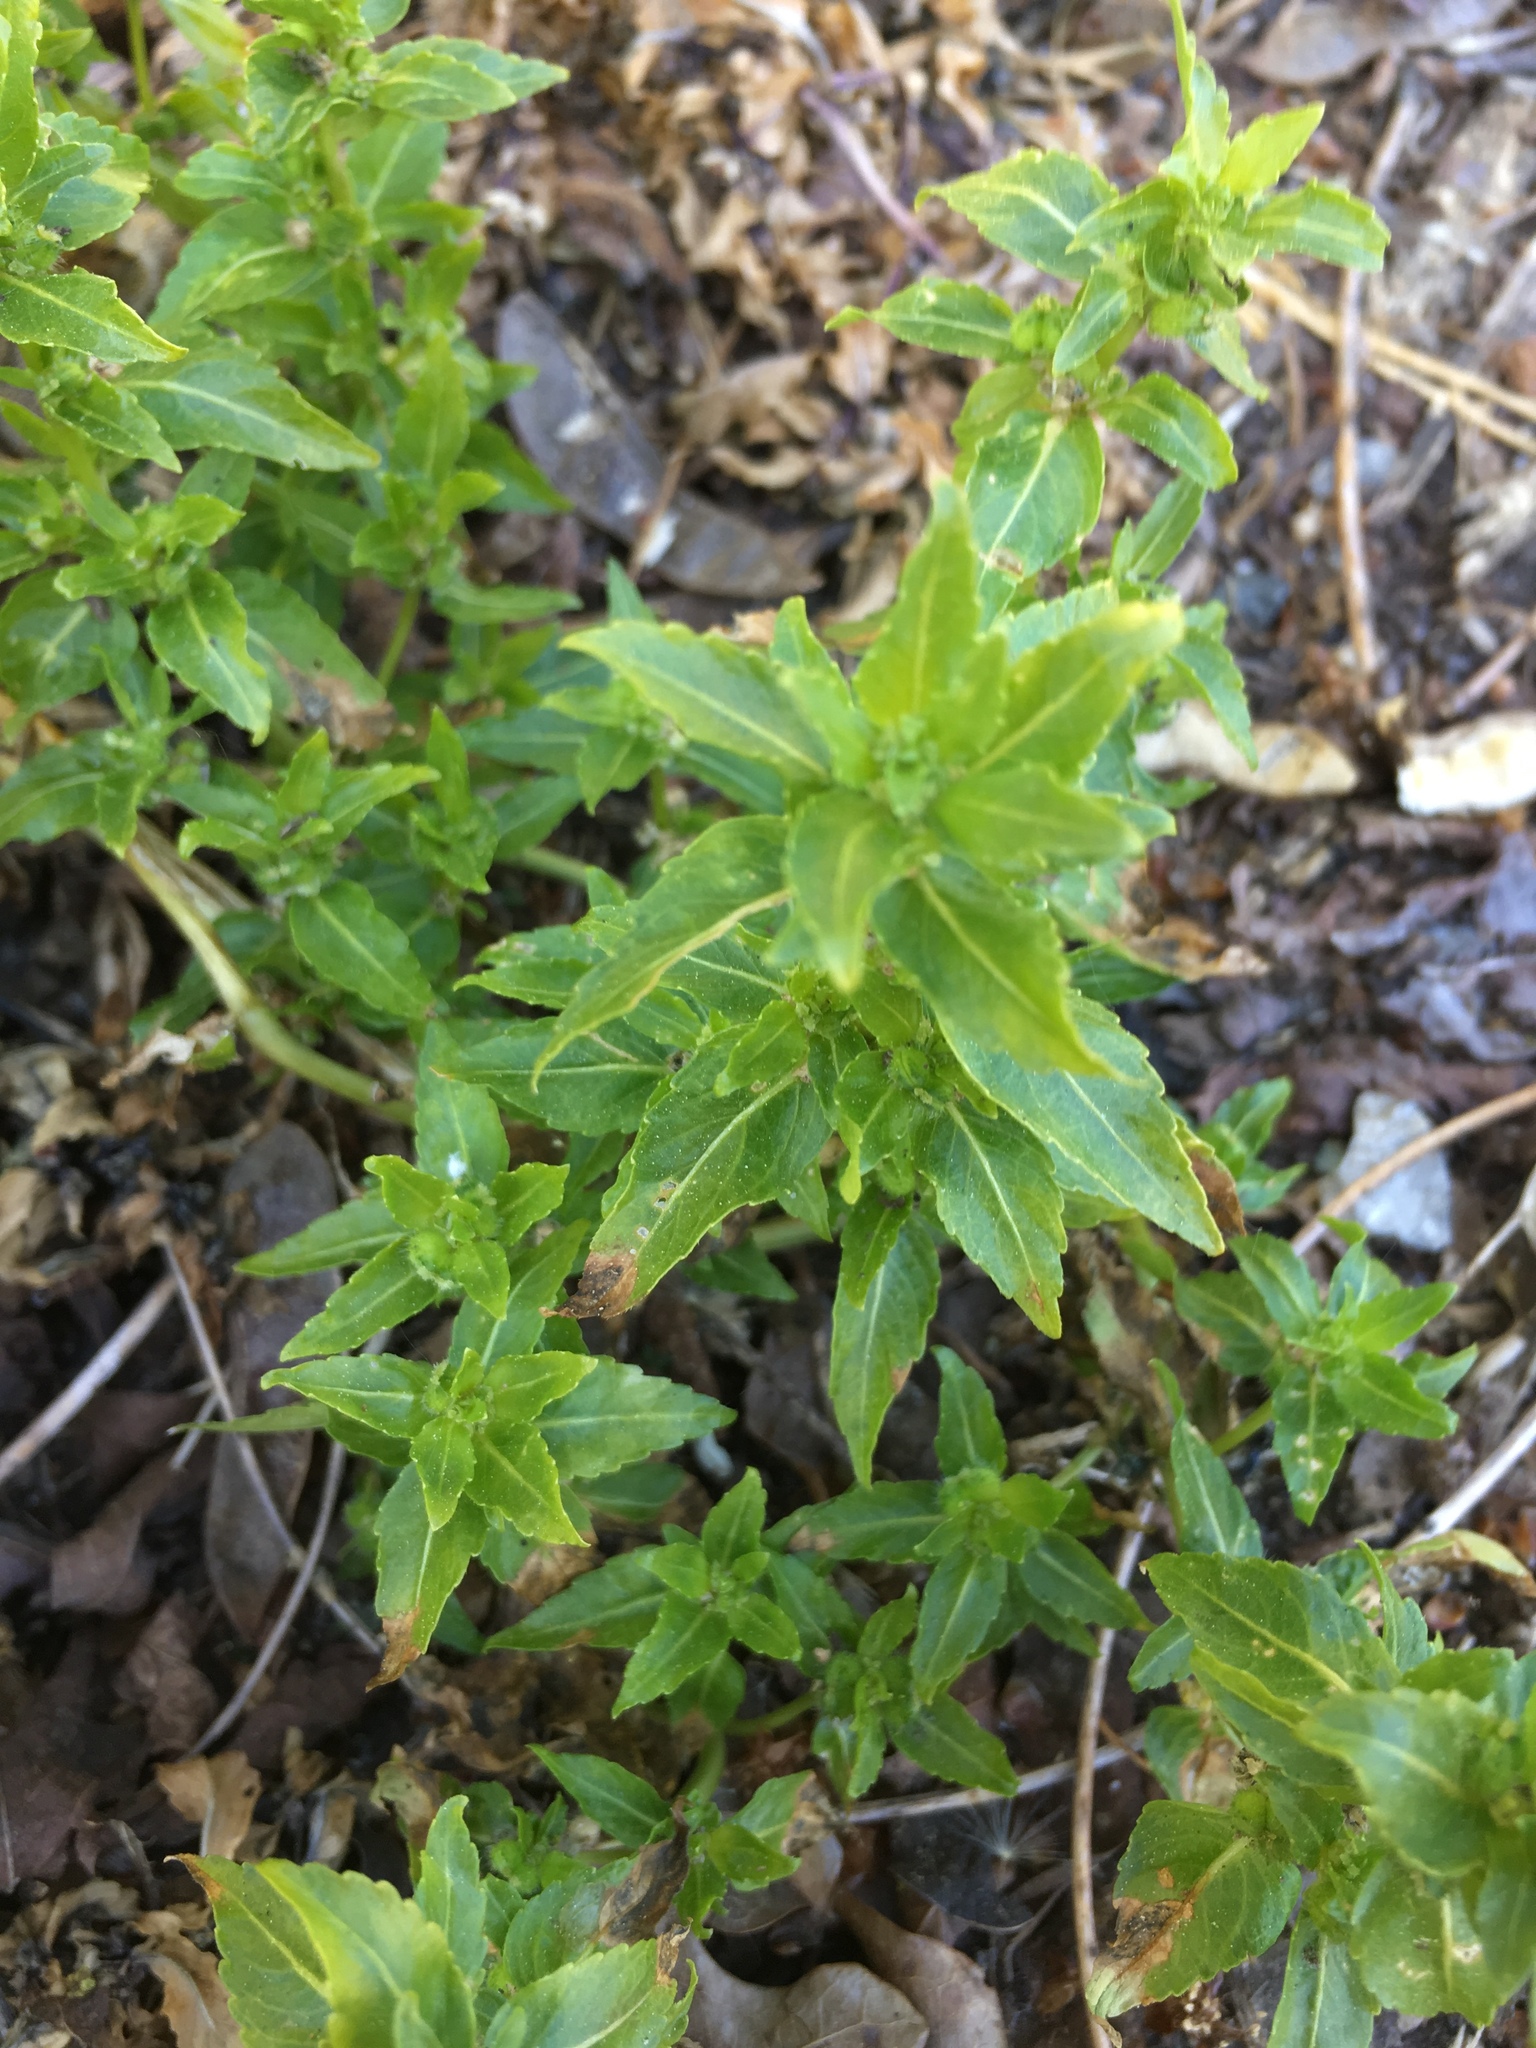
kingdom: Plantae
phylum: Tracheophyta
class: Magnoliopsida
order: Malpighiales
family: Euphorbiaceae
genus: Mercurialis
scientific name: Mercurialis annua
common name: Annual mercury
